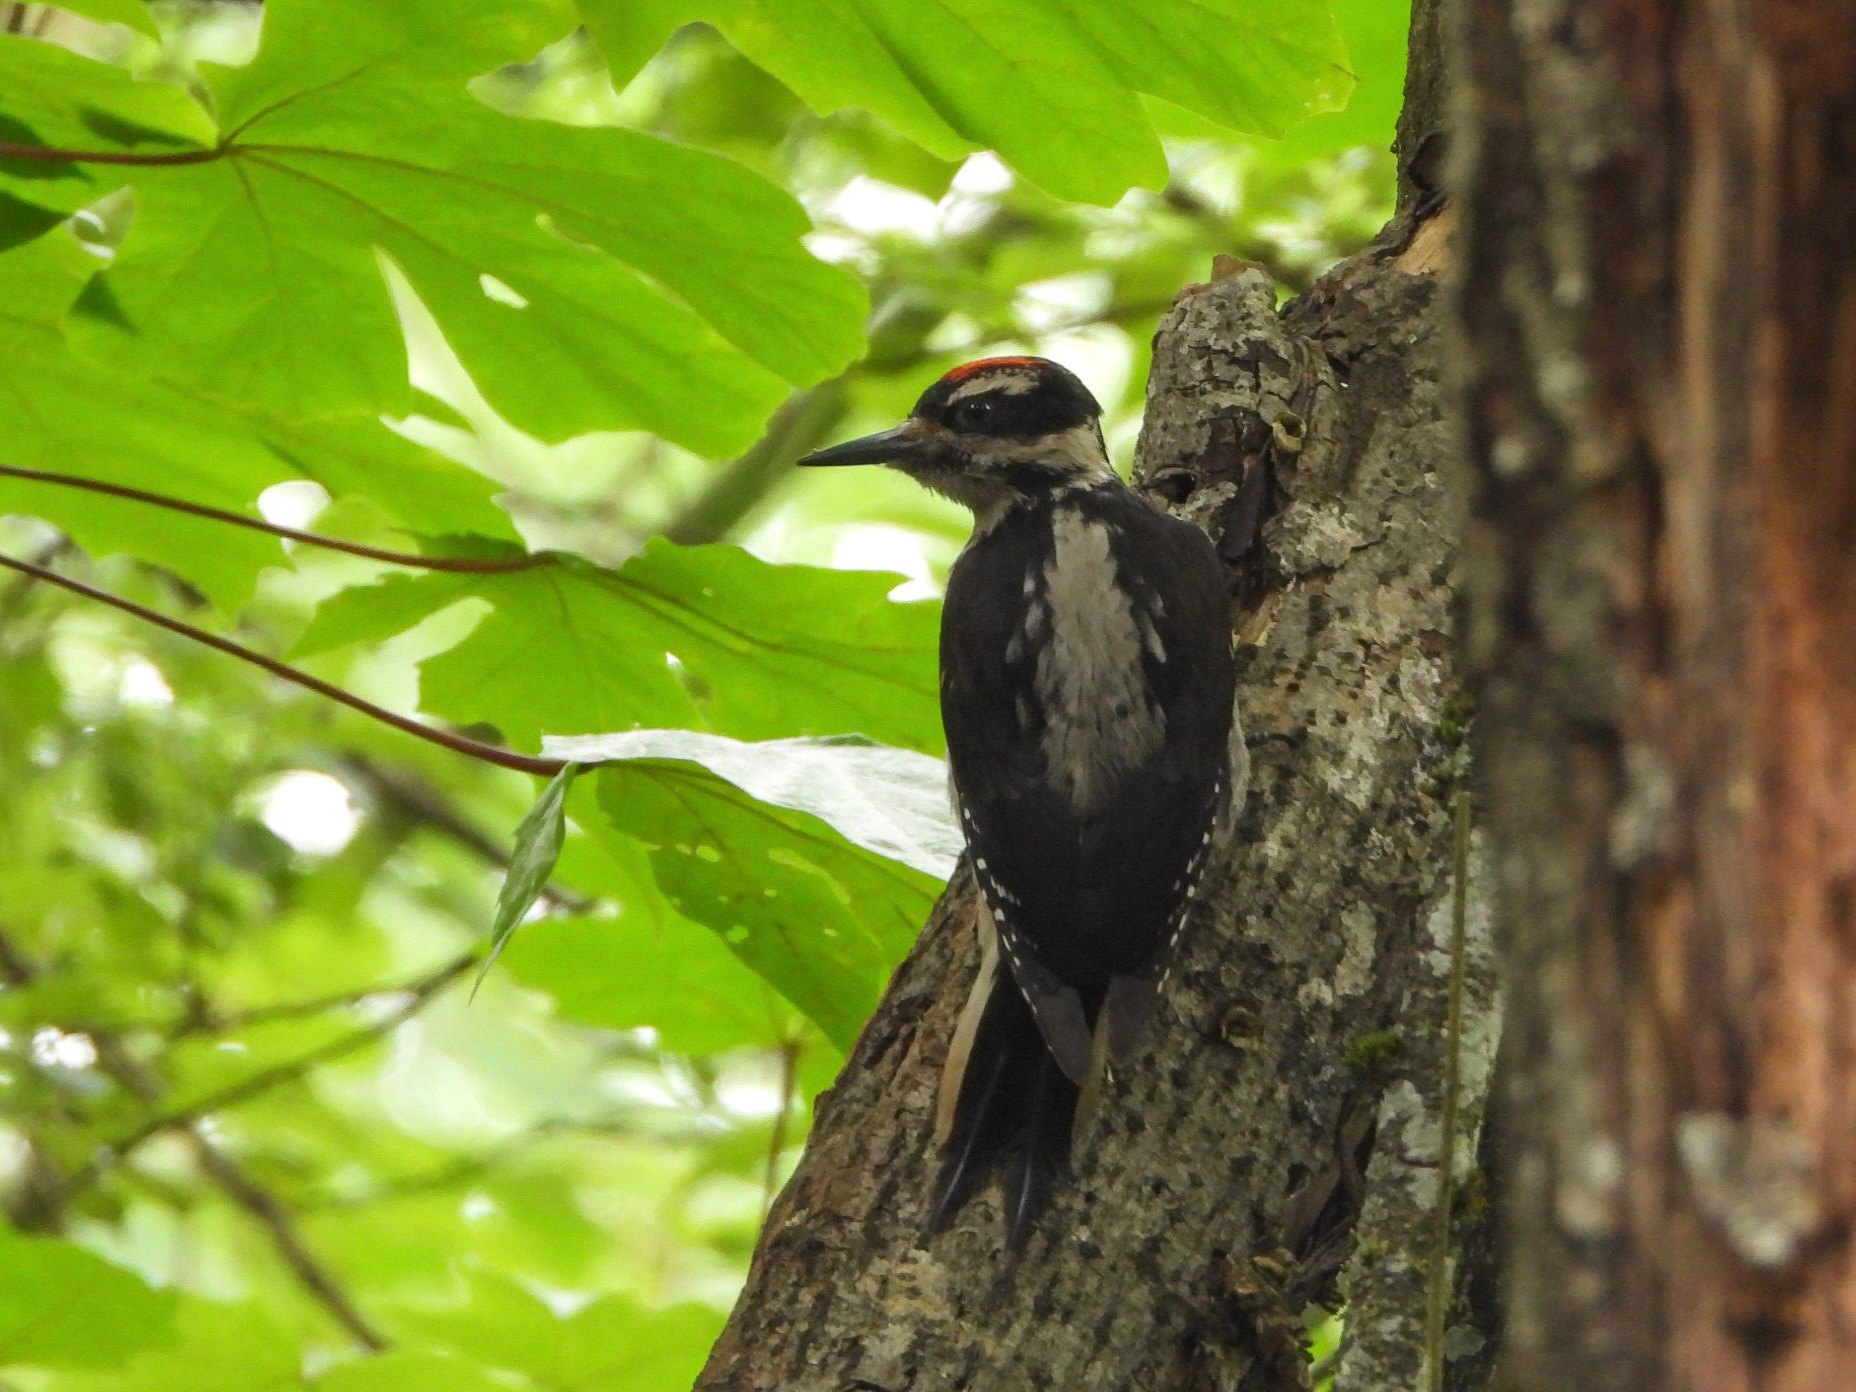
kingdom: Animalia
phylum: Chordata
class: Aves
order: Piciformes
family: Picidae
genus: Leuconotopicus
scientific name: Leuconotopicus villosus
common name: Hairy woodpecker
